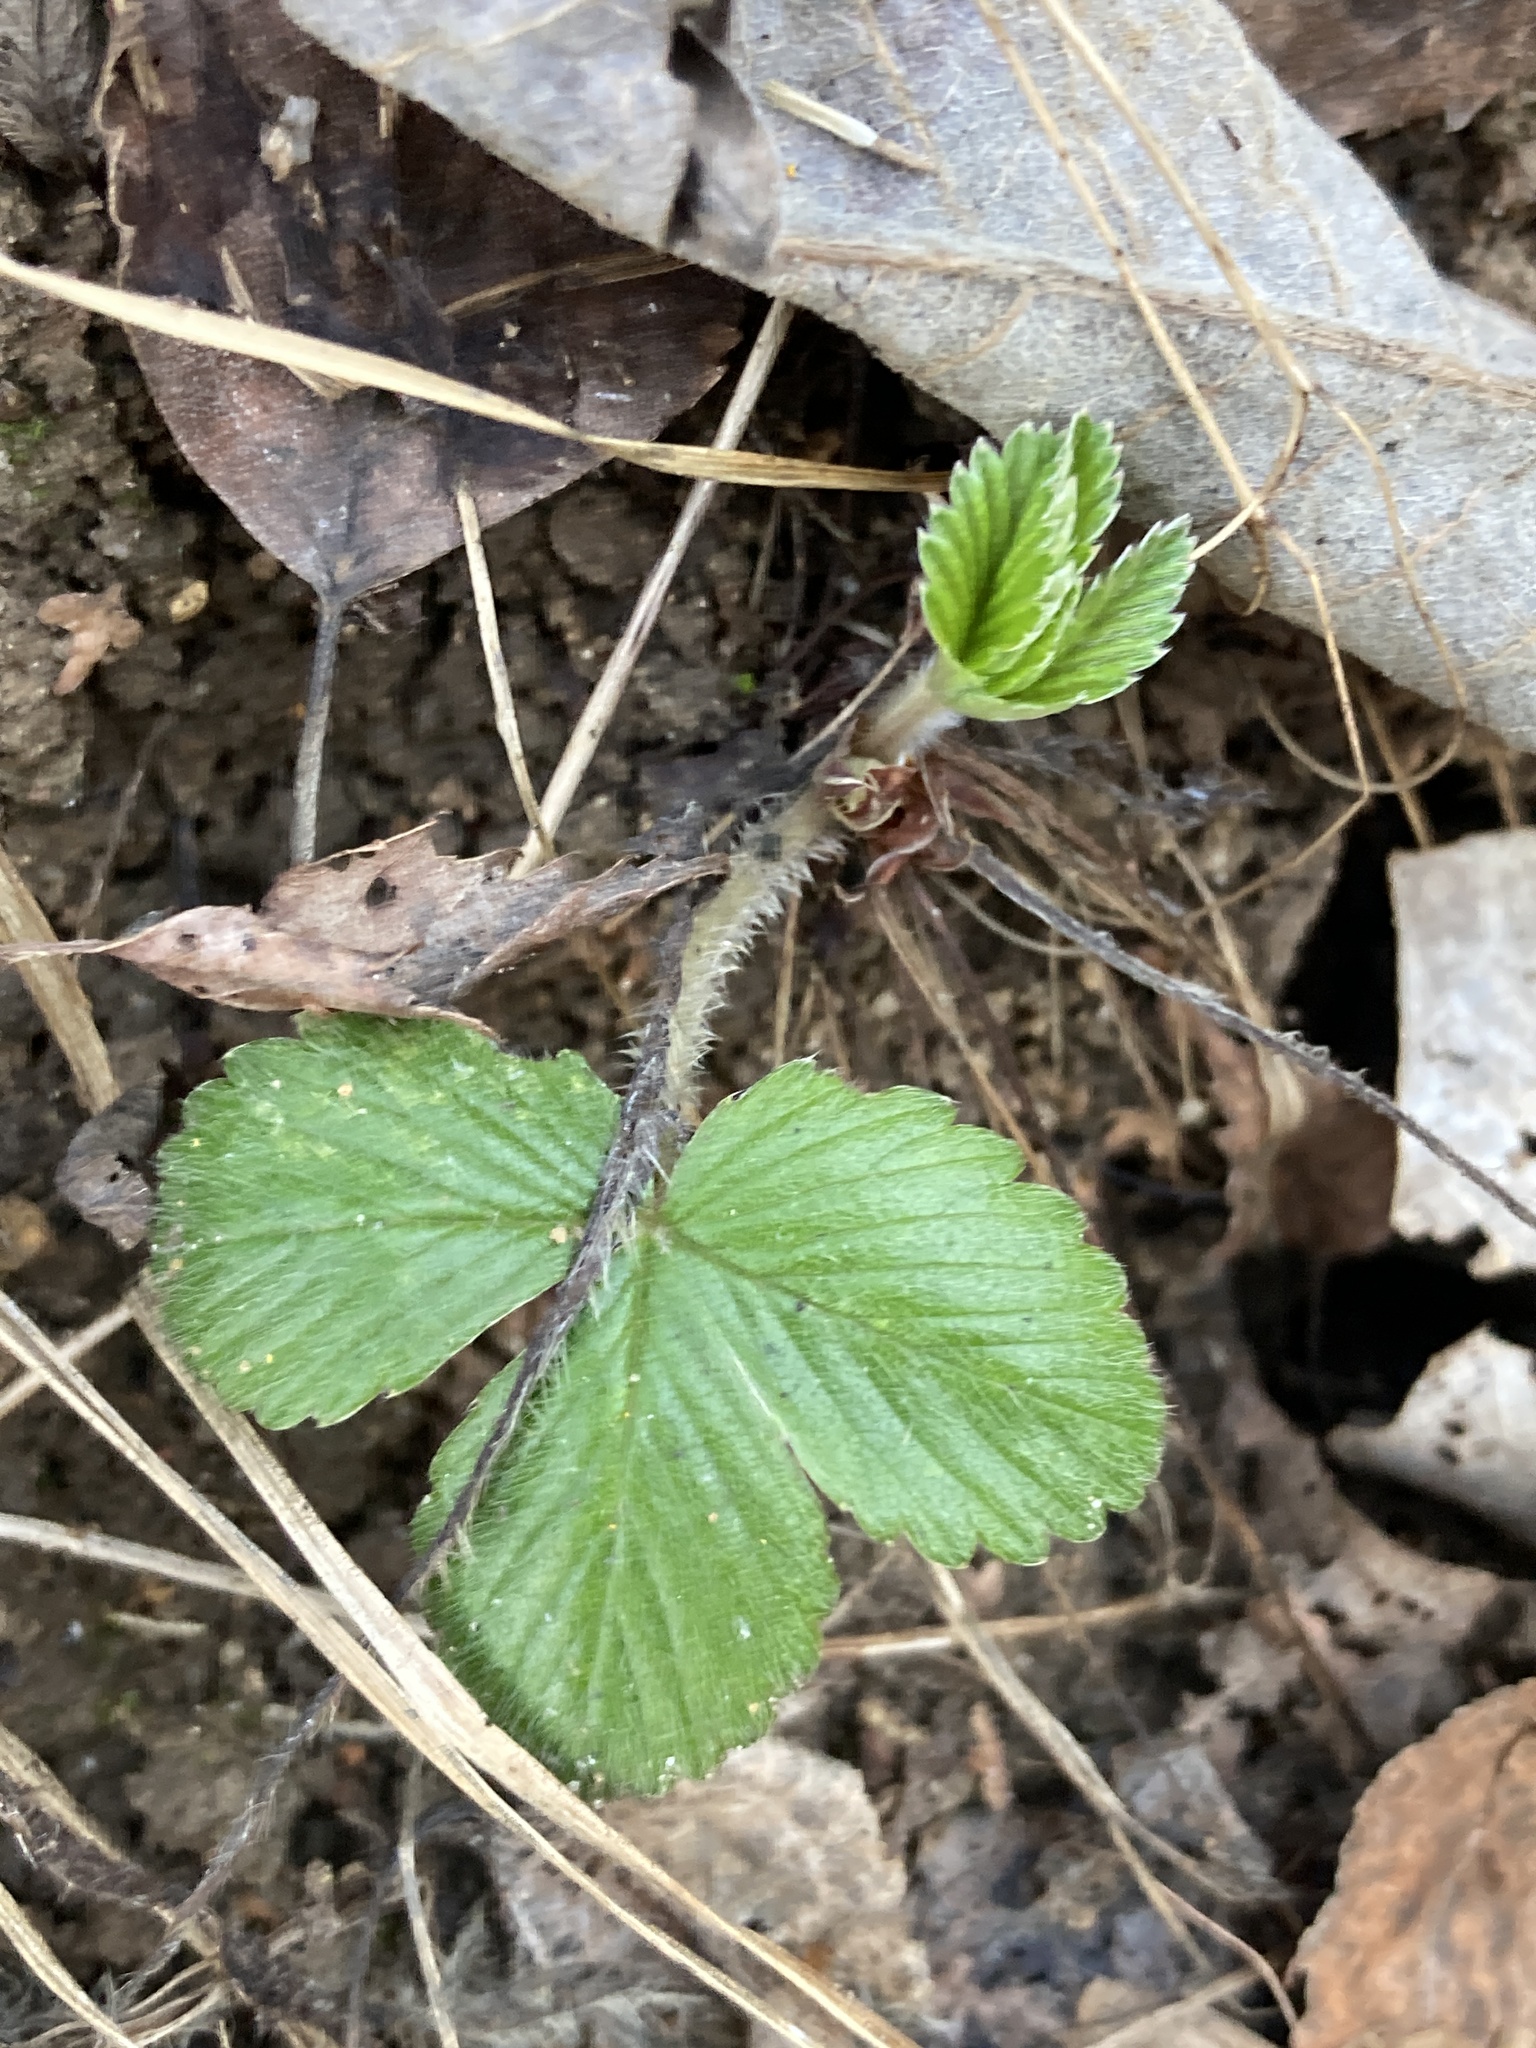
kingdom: Plantae
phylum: Tracheophyta
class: Magnoliopsida
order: Rosales
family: Rosaceae
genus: Fragaria
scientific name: Fragaria vesca
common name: Wild strawberry
